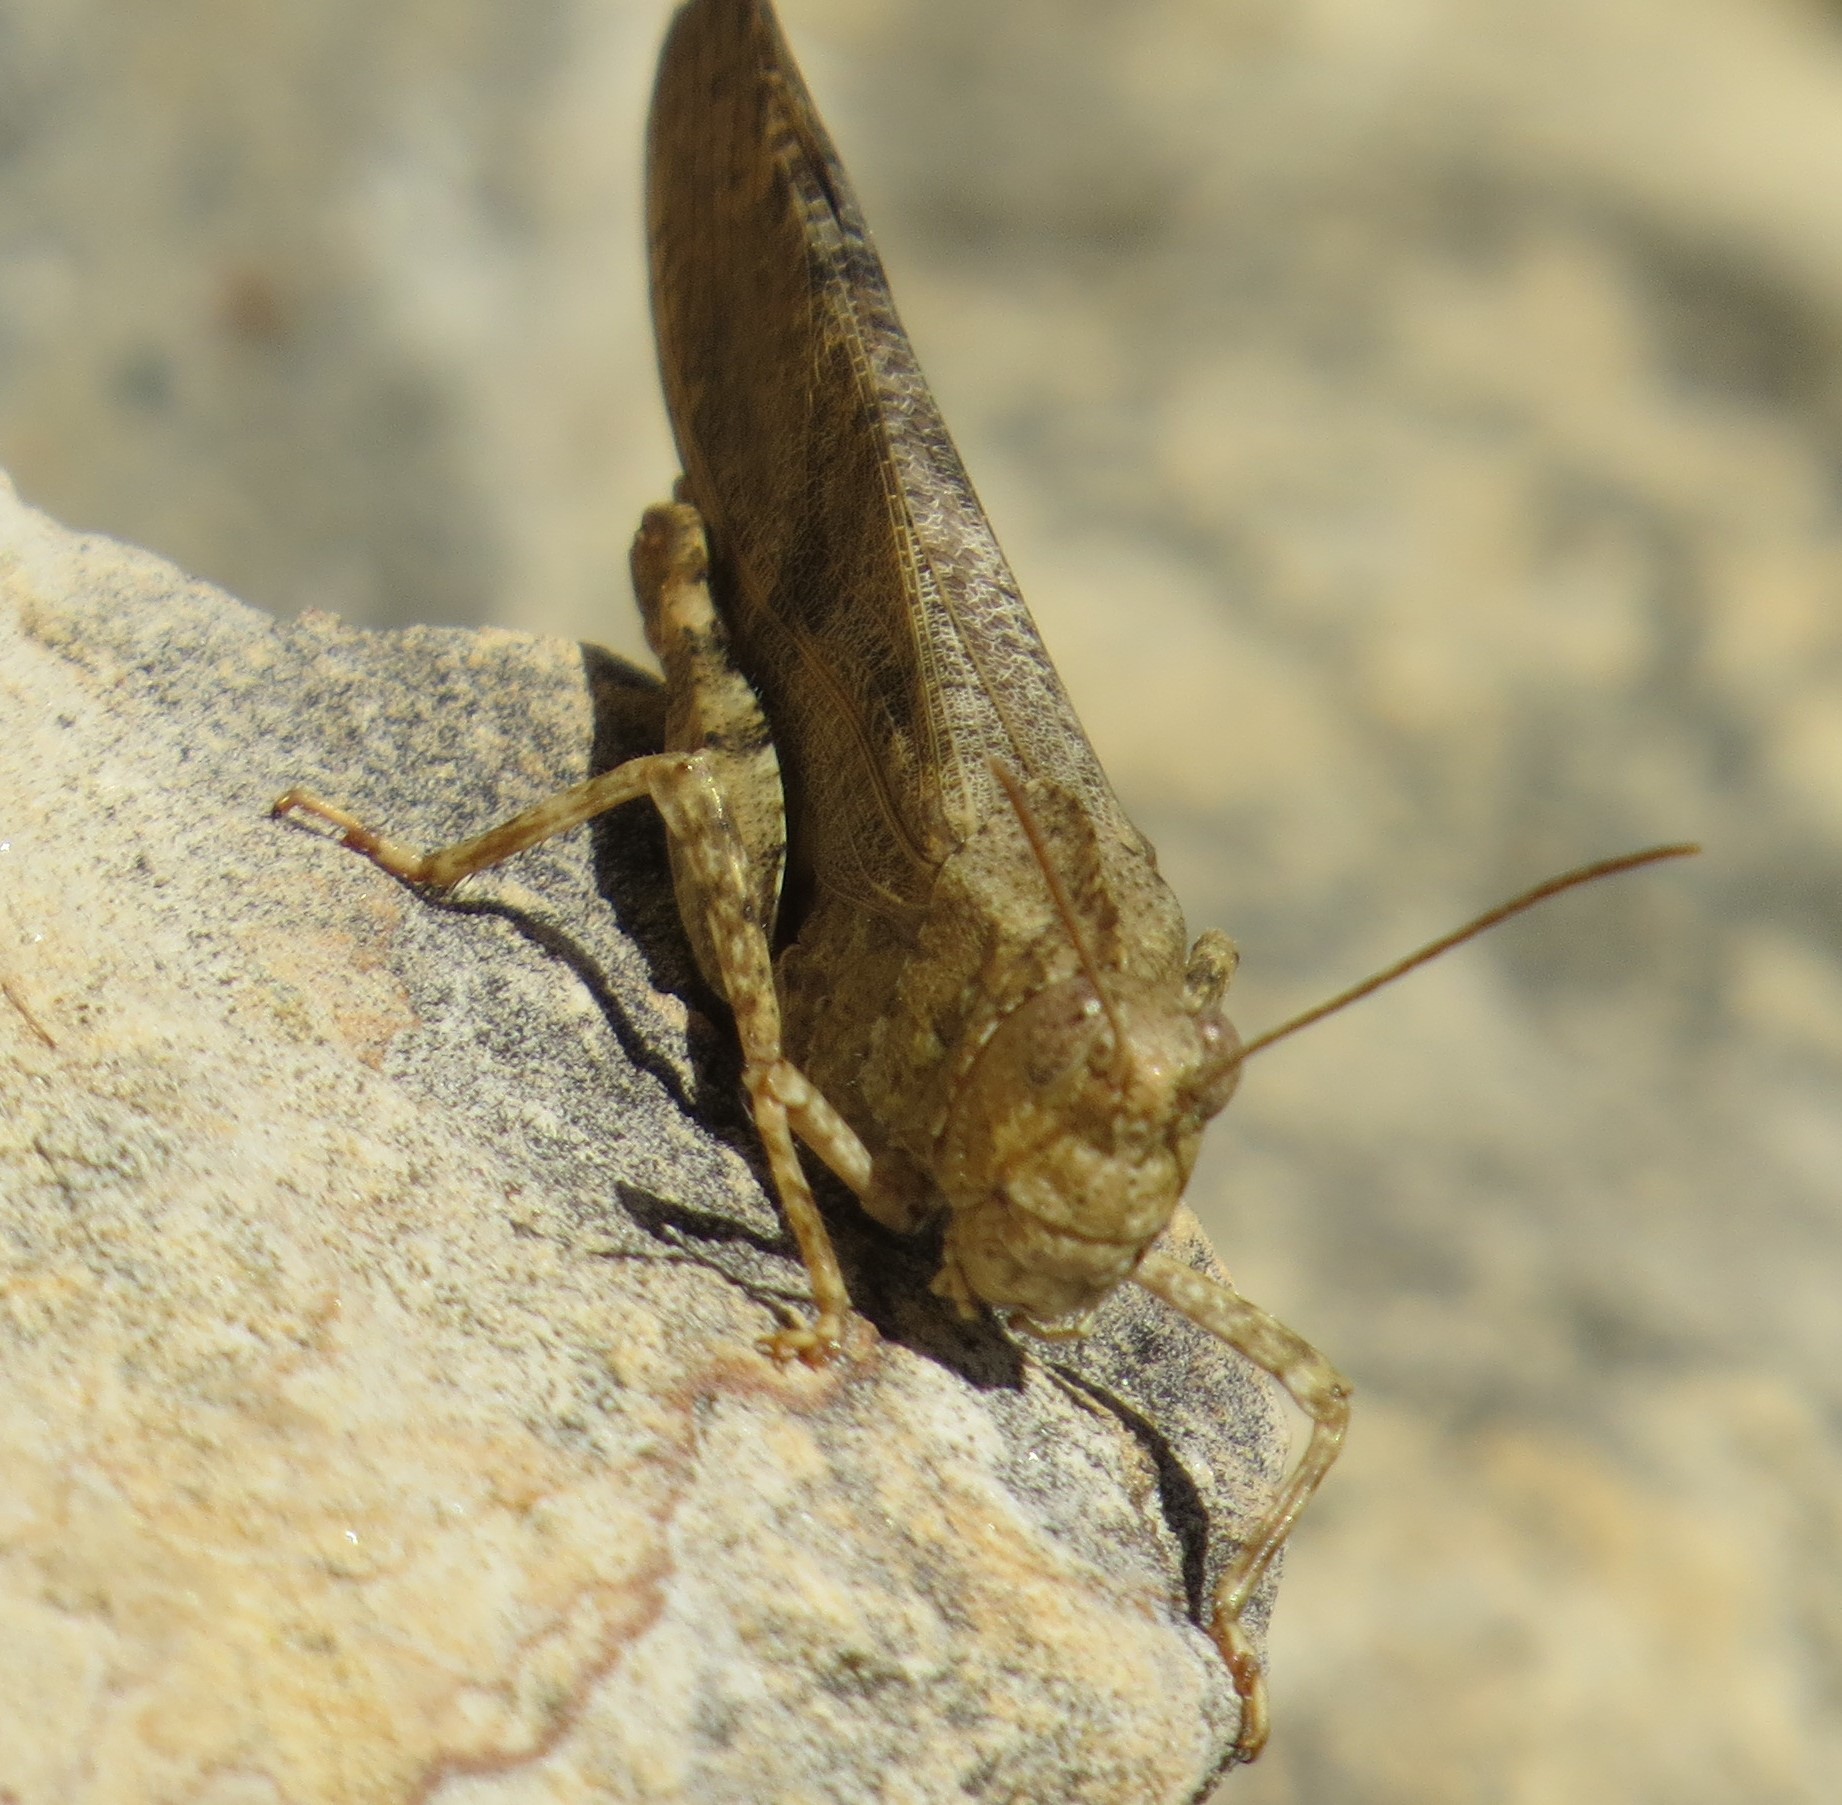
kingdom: Animalia
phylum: Arthropoda
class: Insecta
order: Orthoptera
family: Acrididae
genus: Dissosteira
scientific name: Dissosteira carolina
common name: Carolina grasshopper
